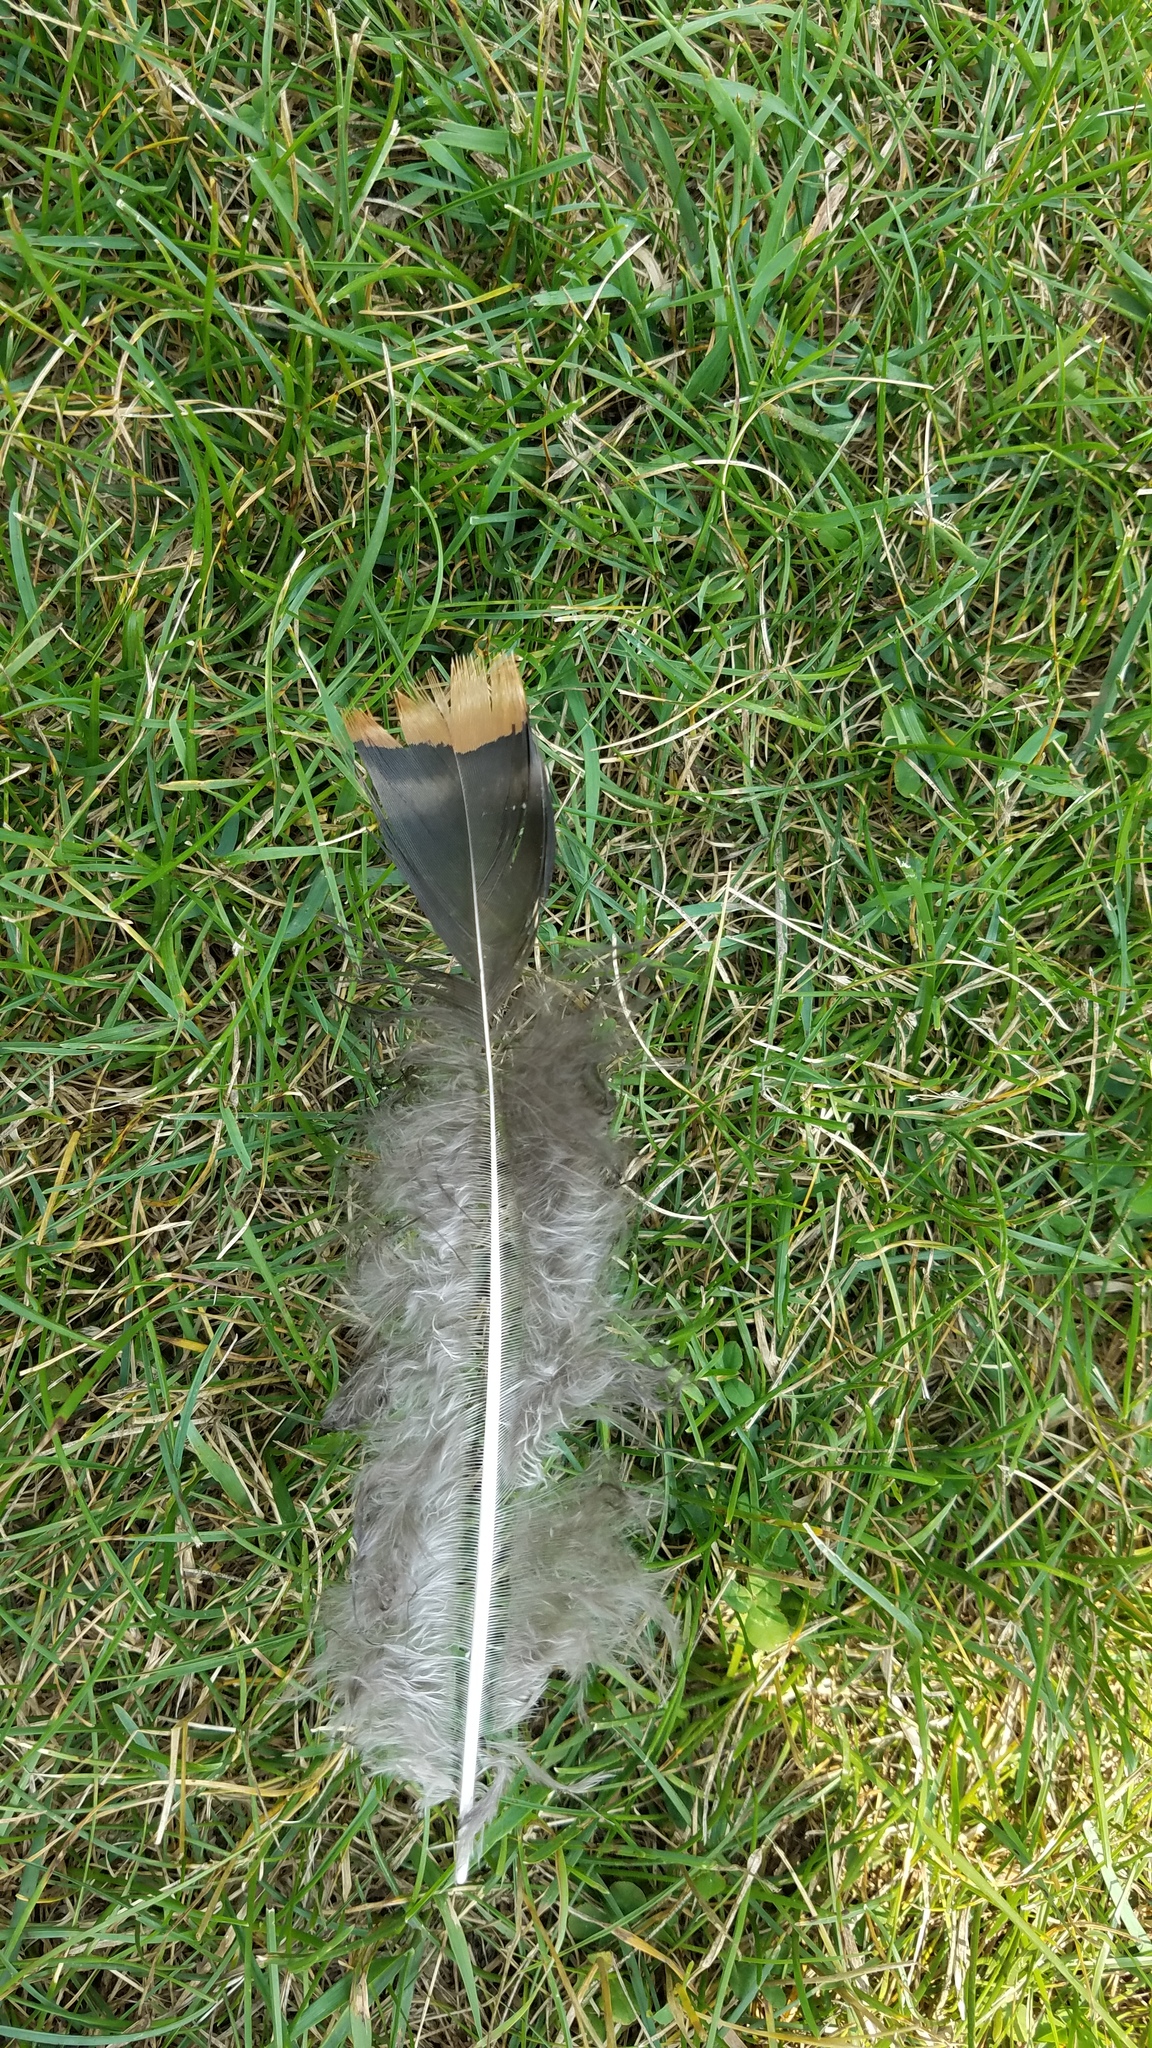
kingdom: Animalia
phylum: Chordata
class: Aves
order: Galliformes
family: Phasianidae
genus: Meleagris
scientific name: Meleagris gallopavo
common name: Wild turkey
